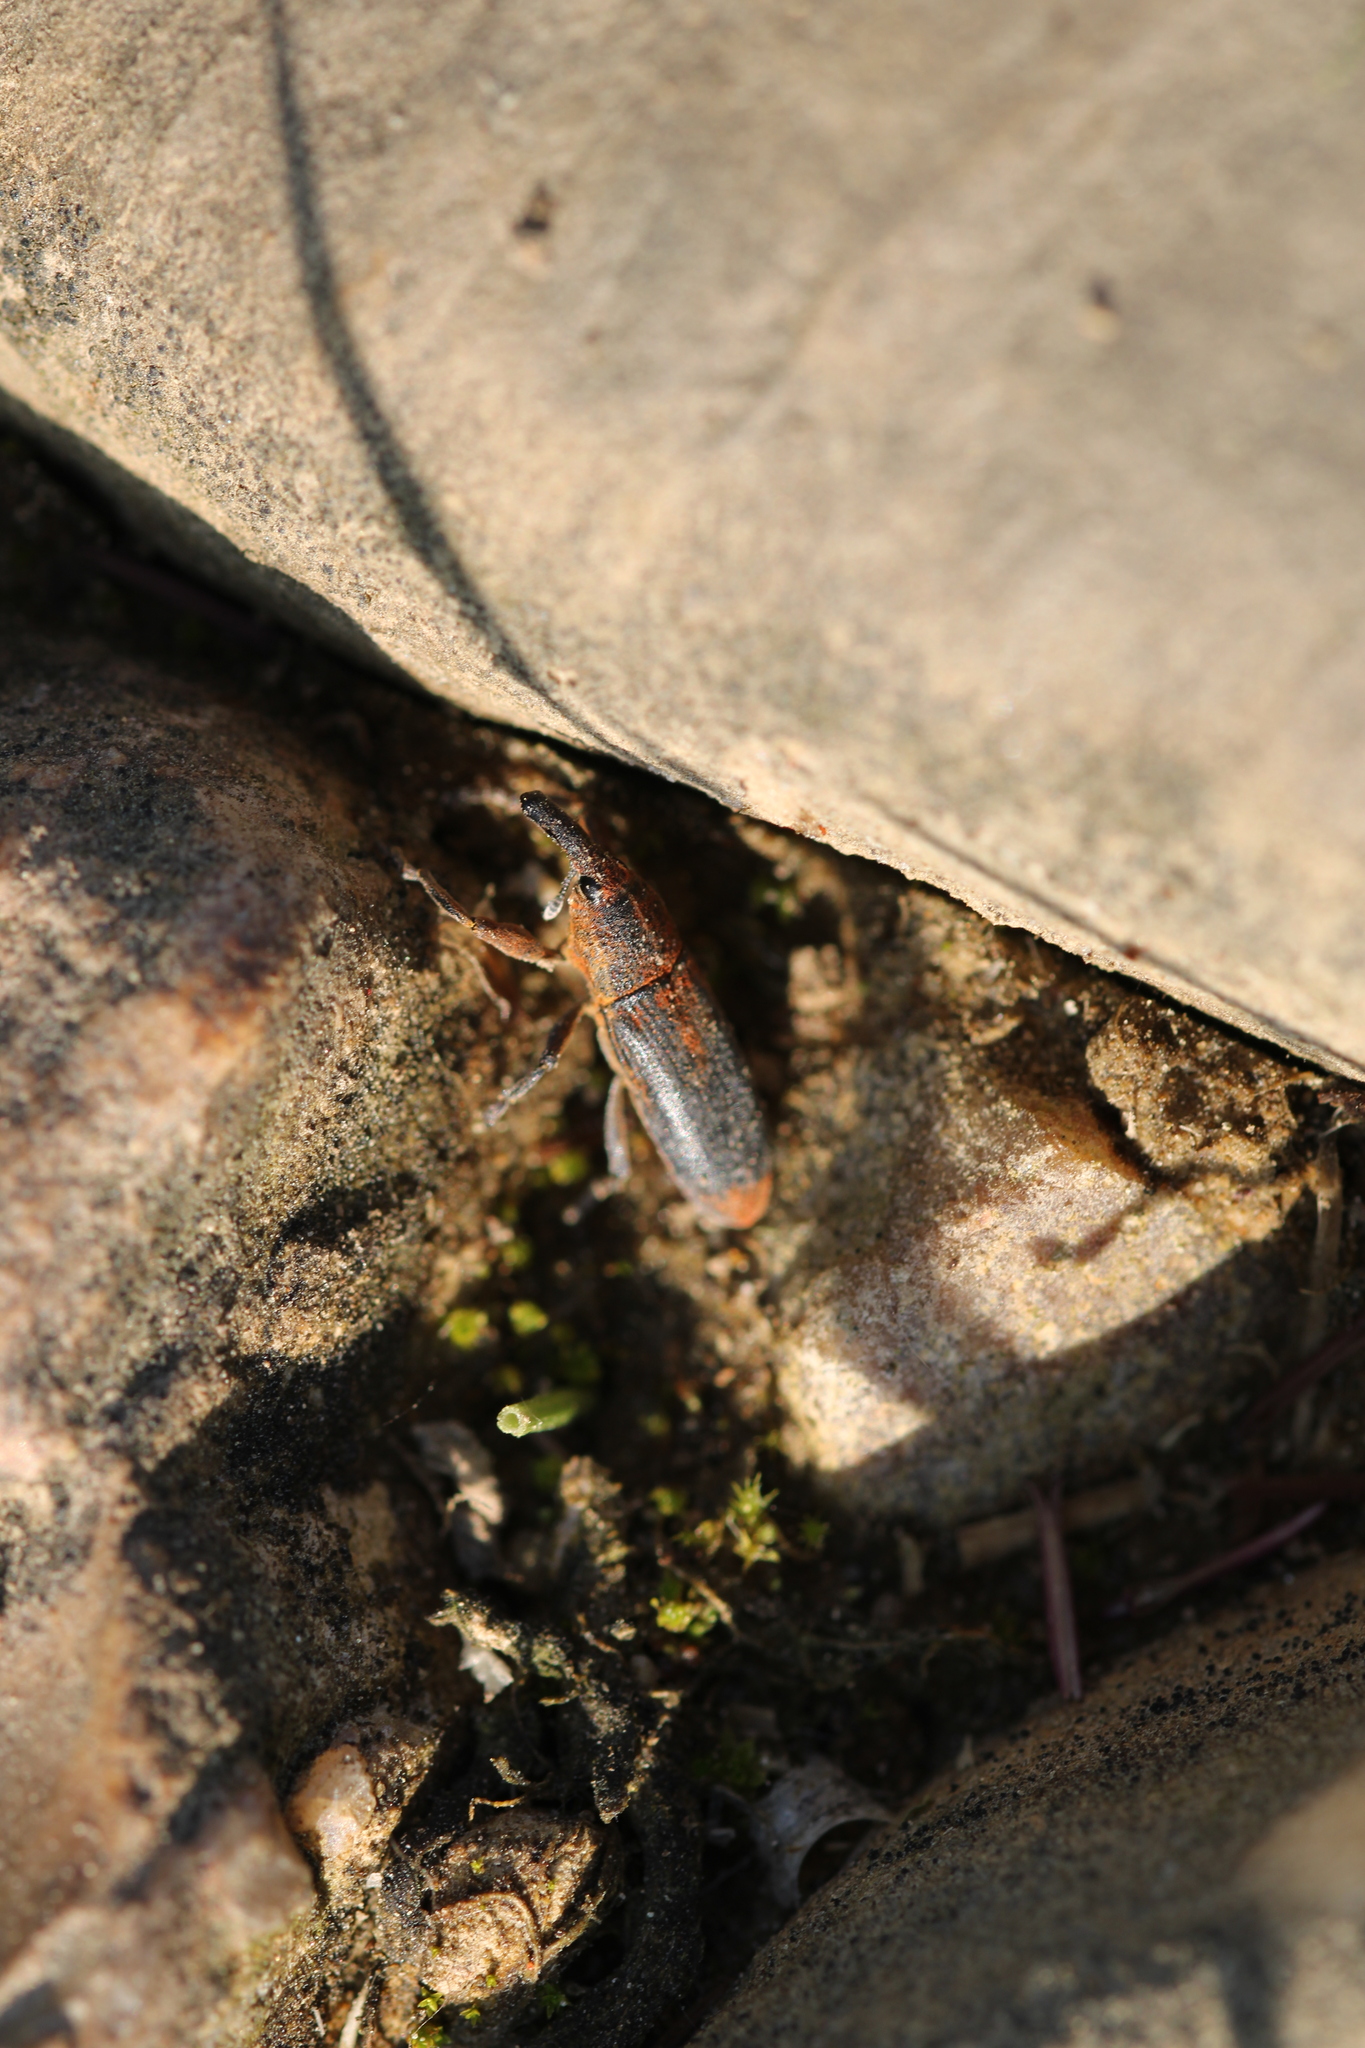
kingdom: Animalia
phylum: Arthropoda
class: Insecta
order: Coleoptera
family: Curculionidae
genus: Lixus
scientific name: Lixus punctiventris
